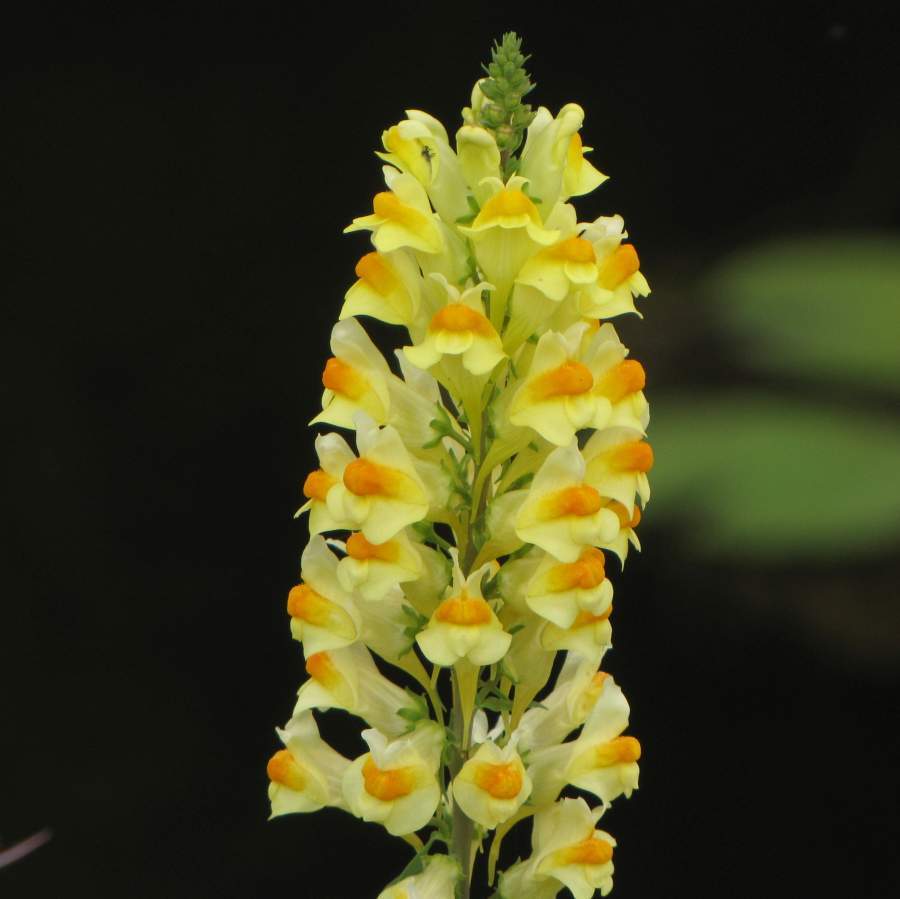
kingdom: Plantae
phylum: Tracheophyta
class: Magnoliopsida
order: Lamiales
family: Plantaginaceae
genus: Linaria
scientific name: Linaria vulgaris
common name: Butter and eggs
